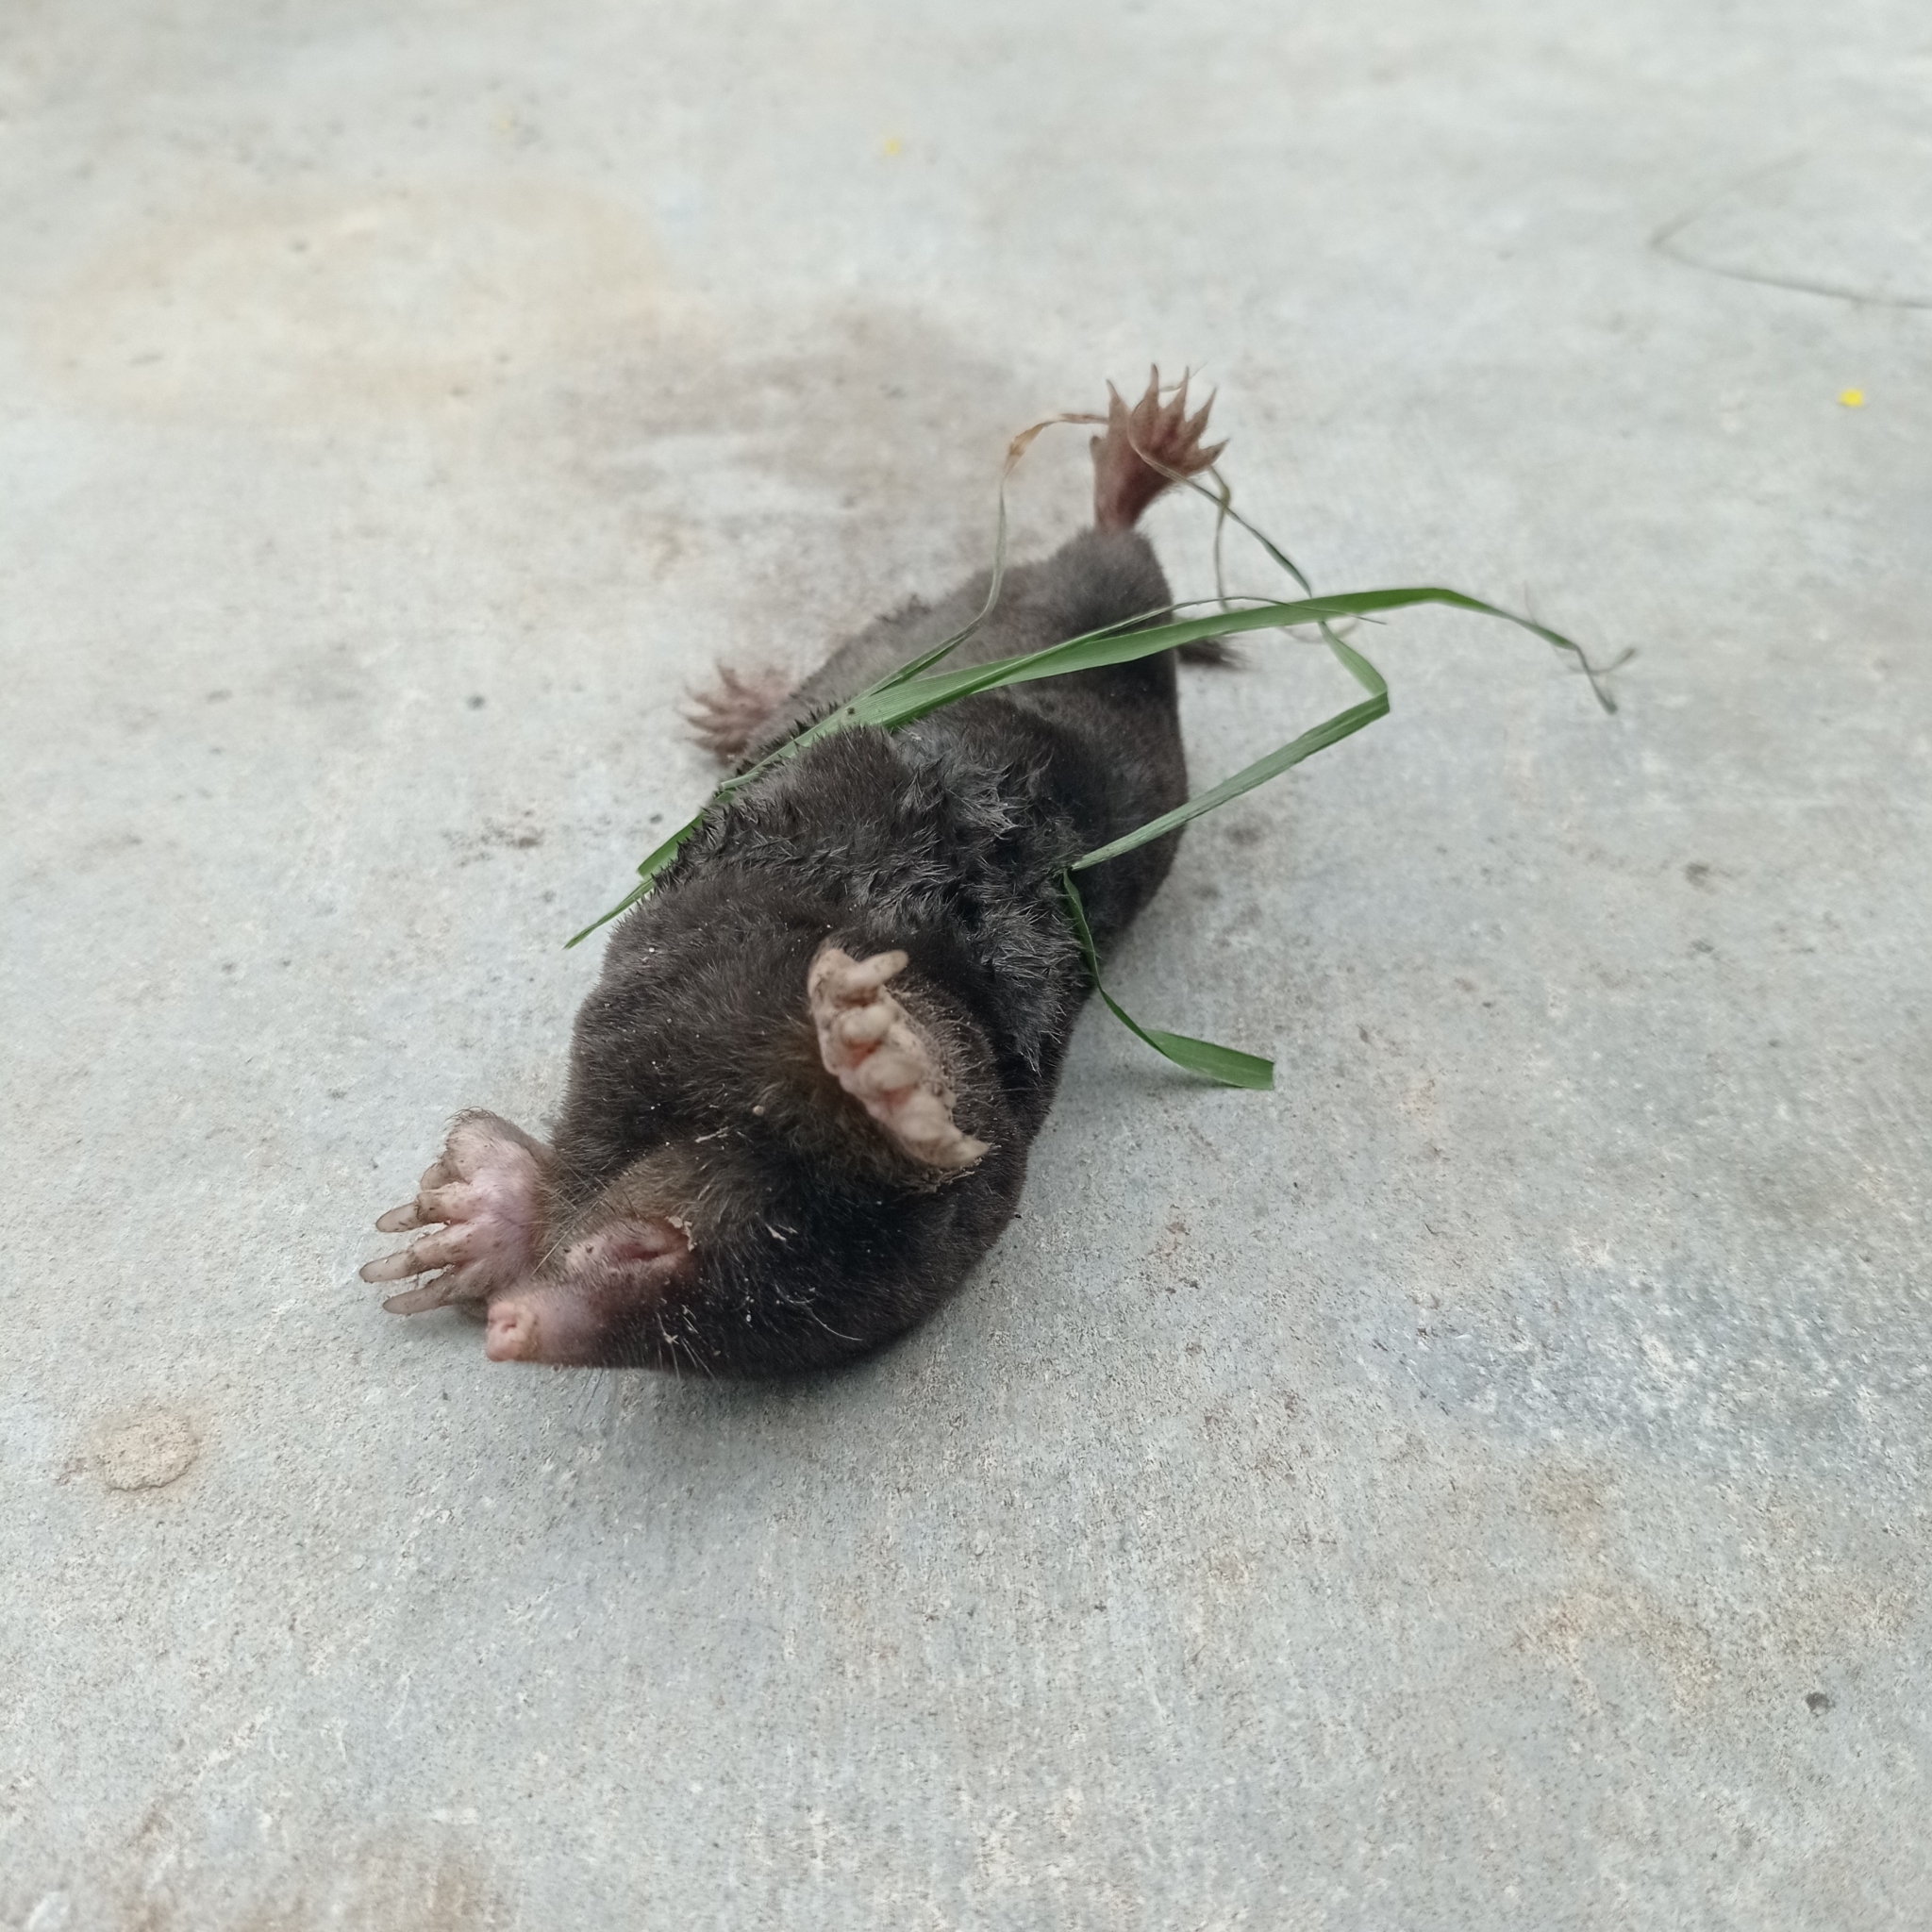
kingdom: Animalia
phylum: Chordata
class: Mammalia
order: Soricomorpha
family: Talpidae
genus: Talpa
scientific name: Talpa europaea
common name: European mole
